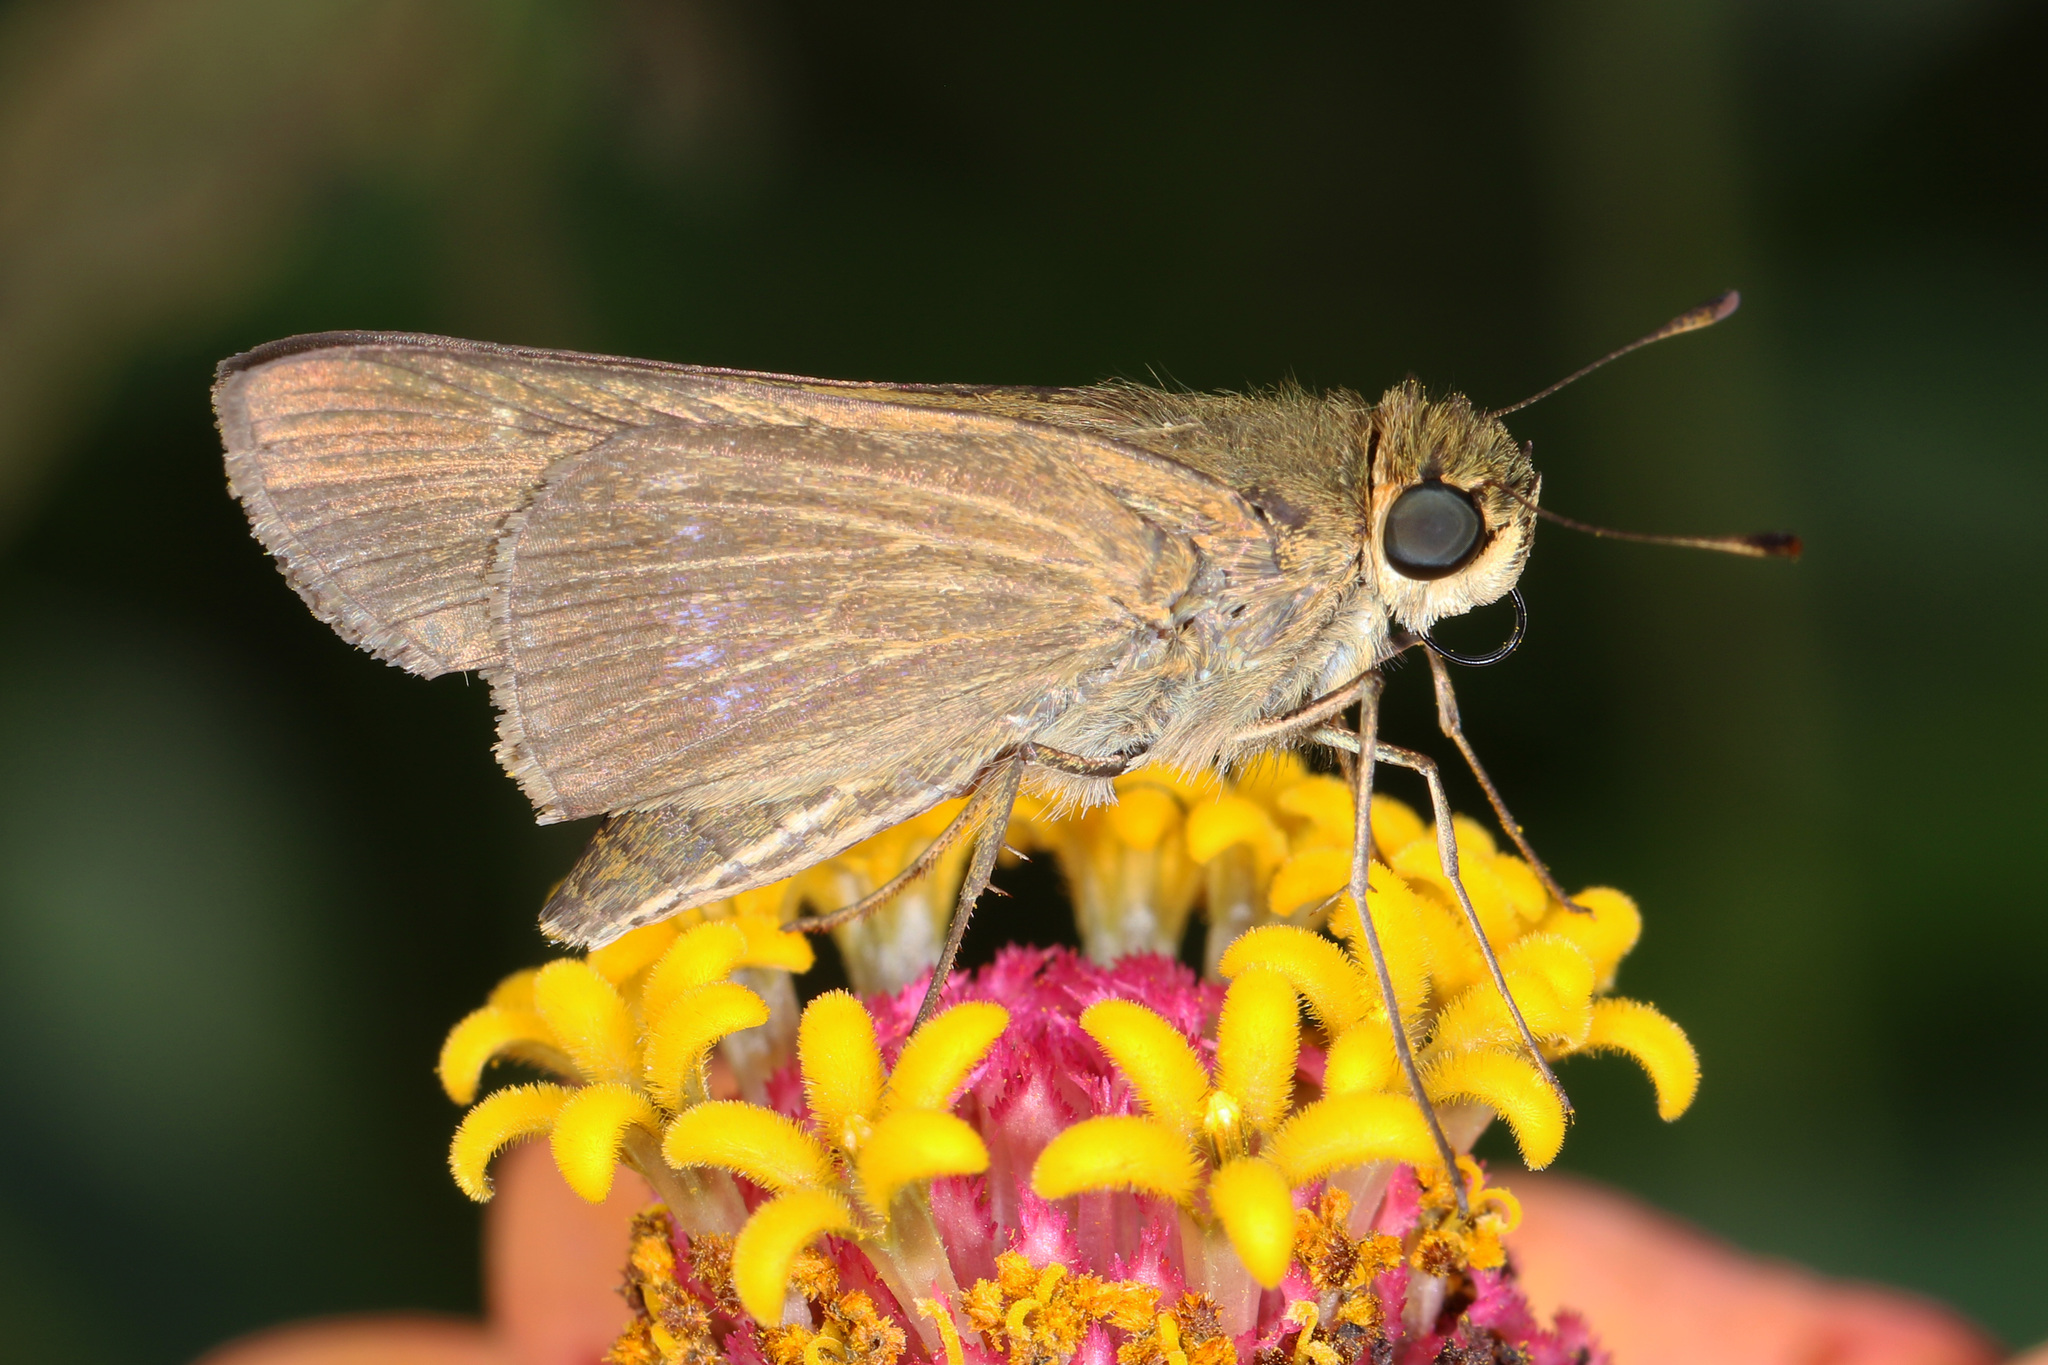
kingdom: Animalia
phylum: Arthropoda
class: Insecta
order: Lepidoptera
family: Hesperiidae
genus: Panoquina
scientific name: Panoquina ocola
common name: Ocola skipper
